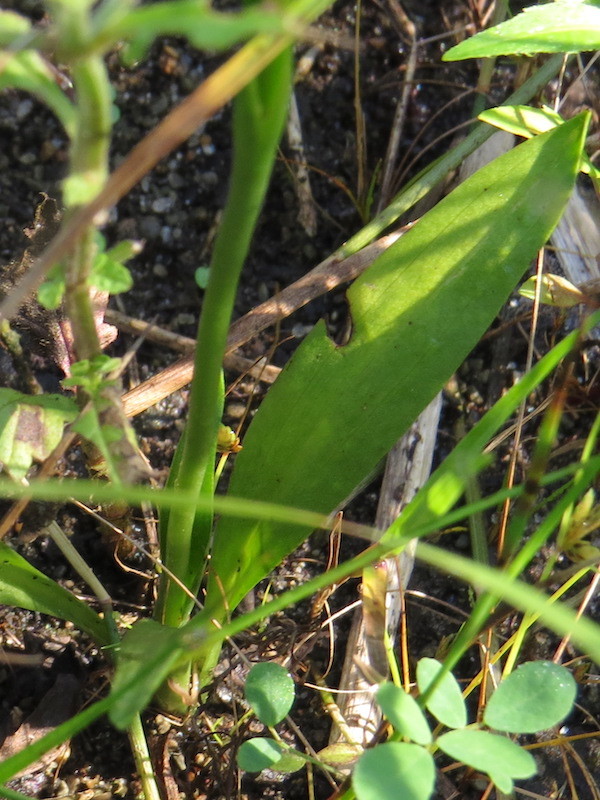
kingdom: Plantae
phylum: Tracheophyta
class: Liliopsida
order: Asparagales
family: Orchidaceae
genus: Spiranthes
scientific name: Spiranthes incurva
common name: Sphinx ladies'-tresses
